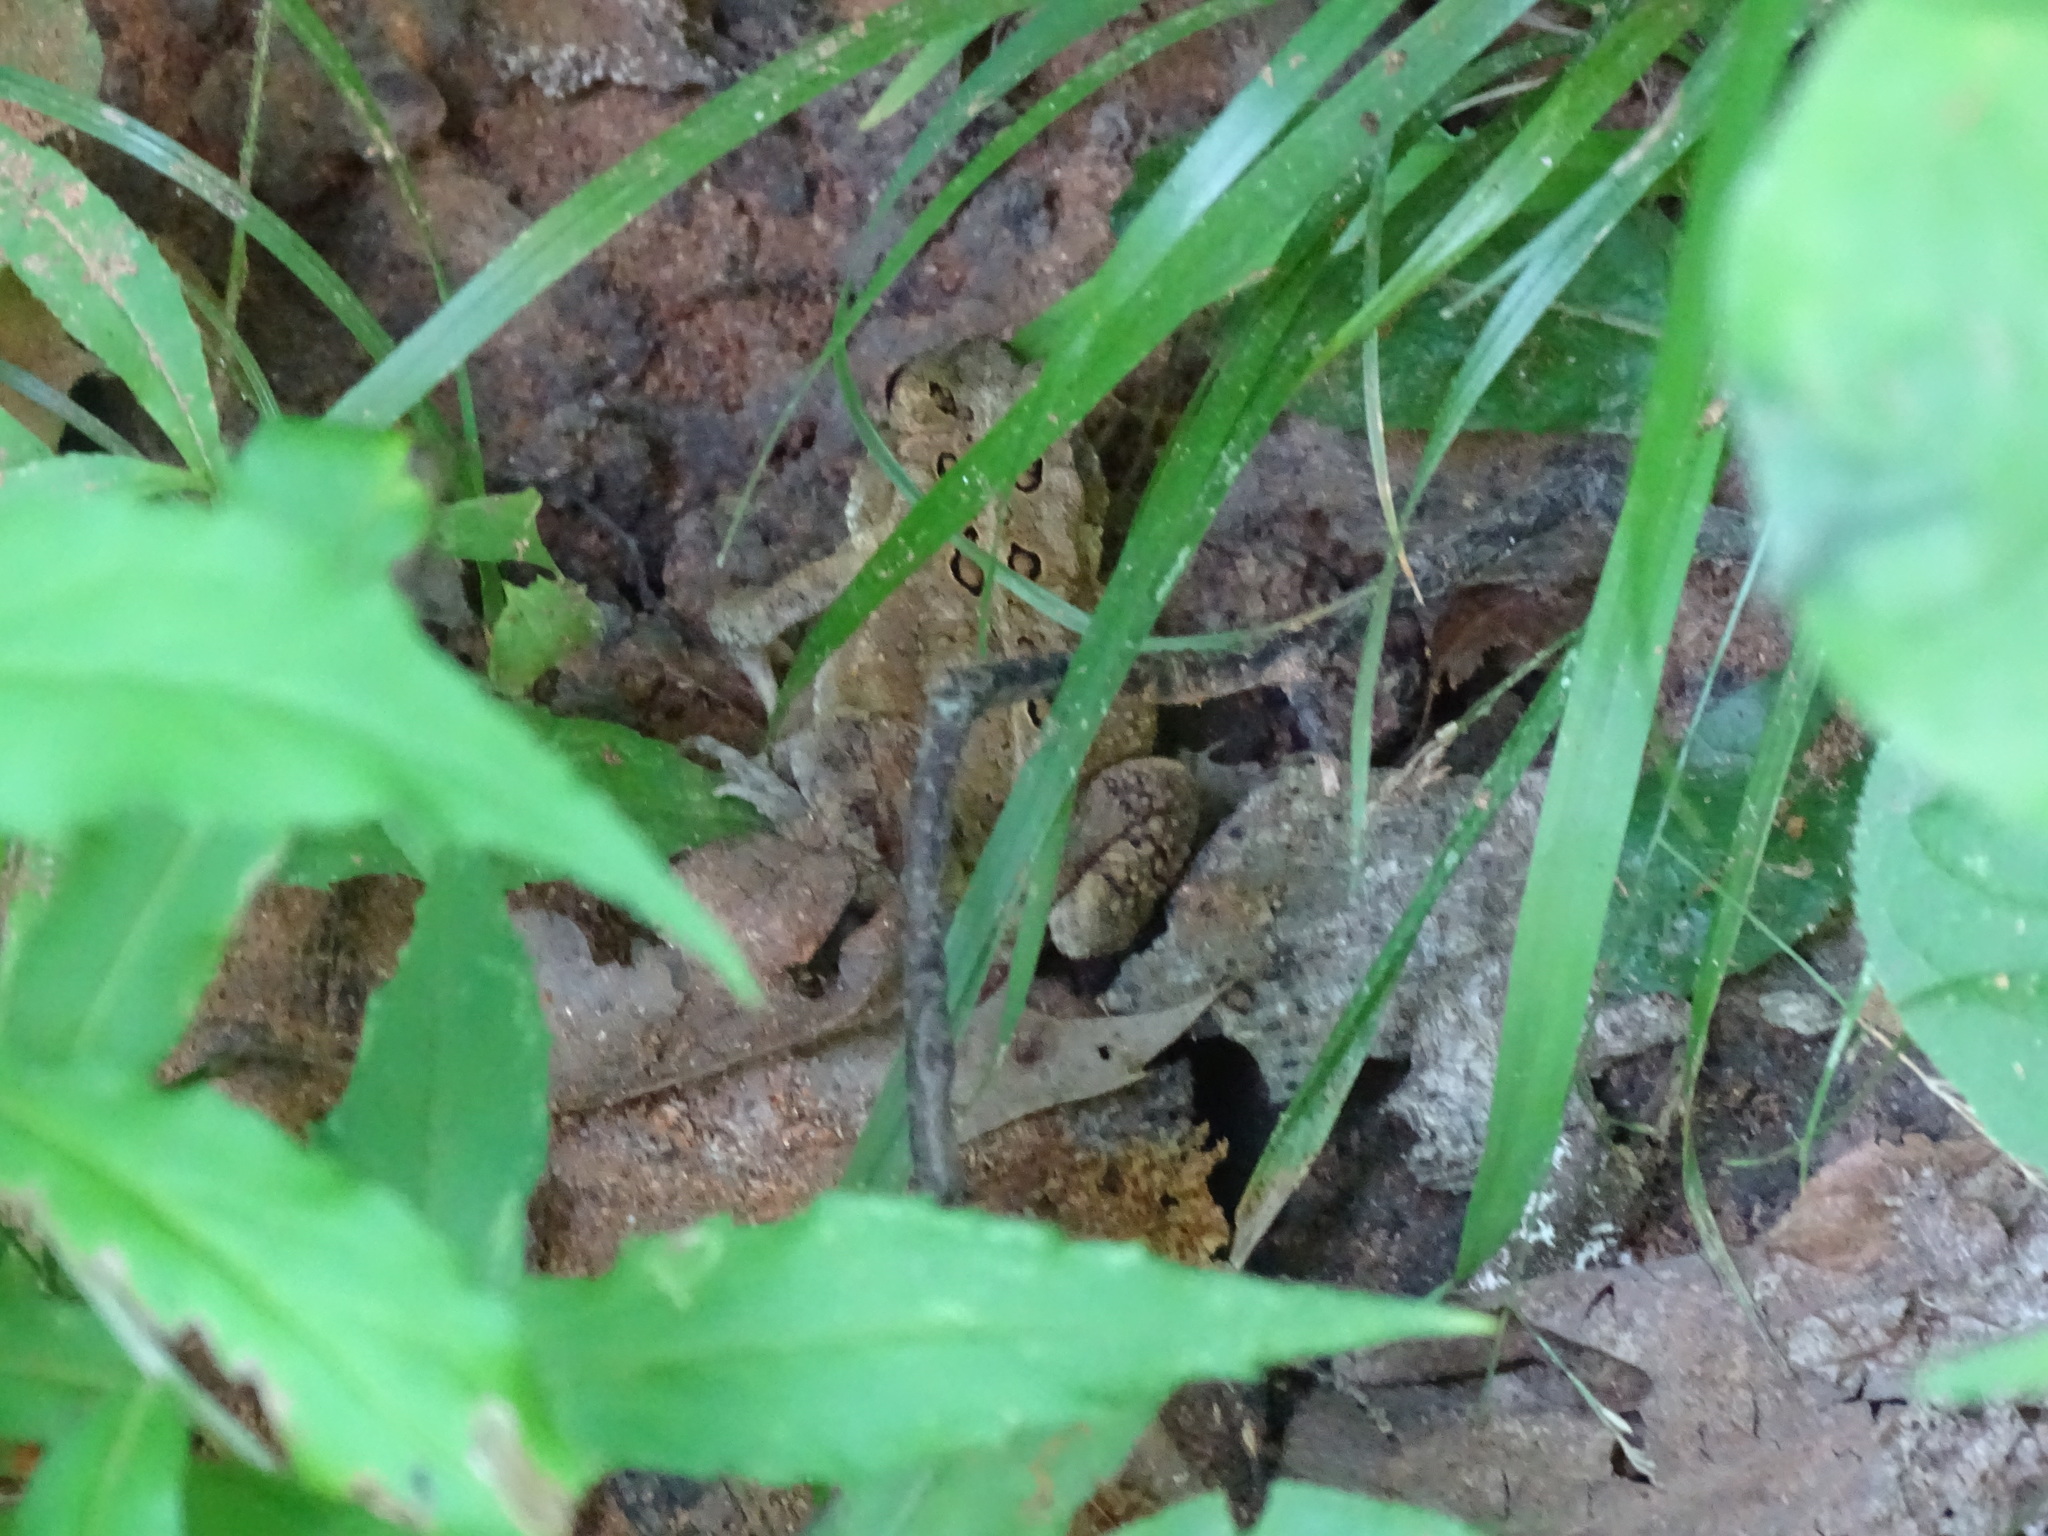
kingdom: Animalia
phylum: Chordata
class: Amphibia
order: Anura
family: Bufonidae
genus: Anaxyrus
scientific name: Anaxyrus americanus
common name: American toad
